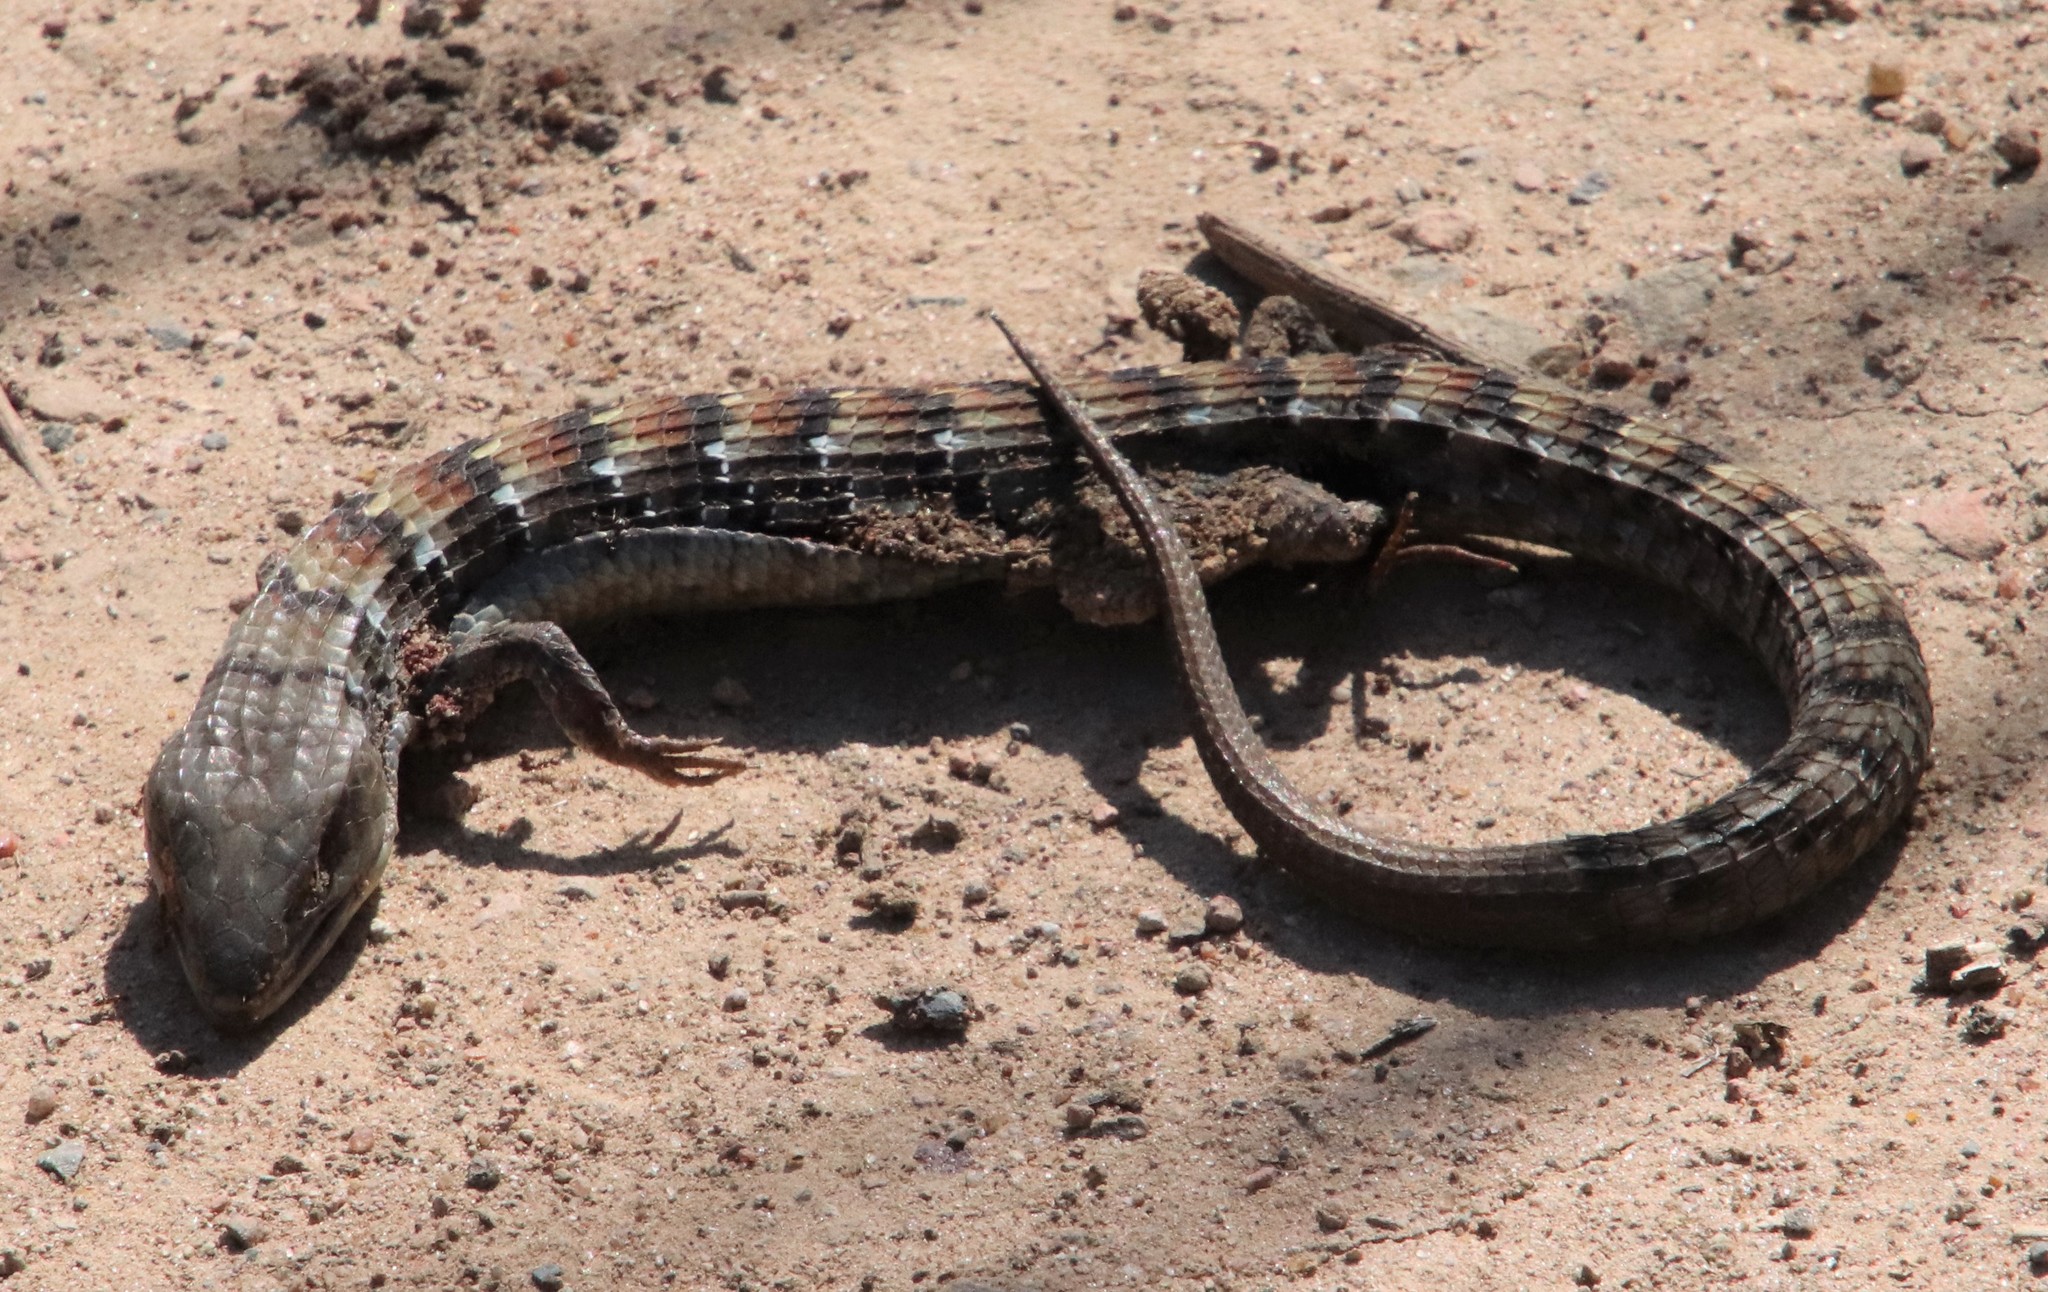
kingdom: Animalia
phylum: Chordata
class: Squamata
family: Anguidae
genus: Elgaria
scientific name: Elgaria multicarinata
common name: Southern alligator lizard
